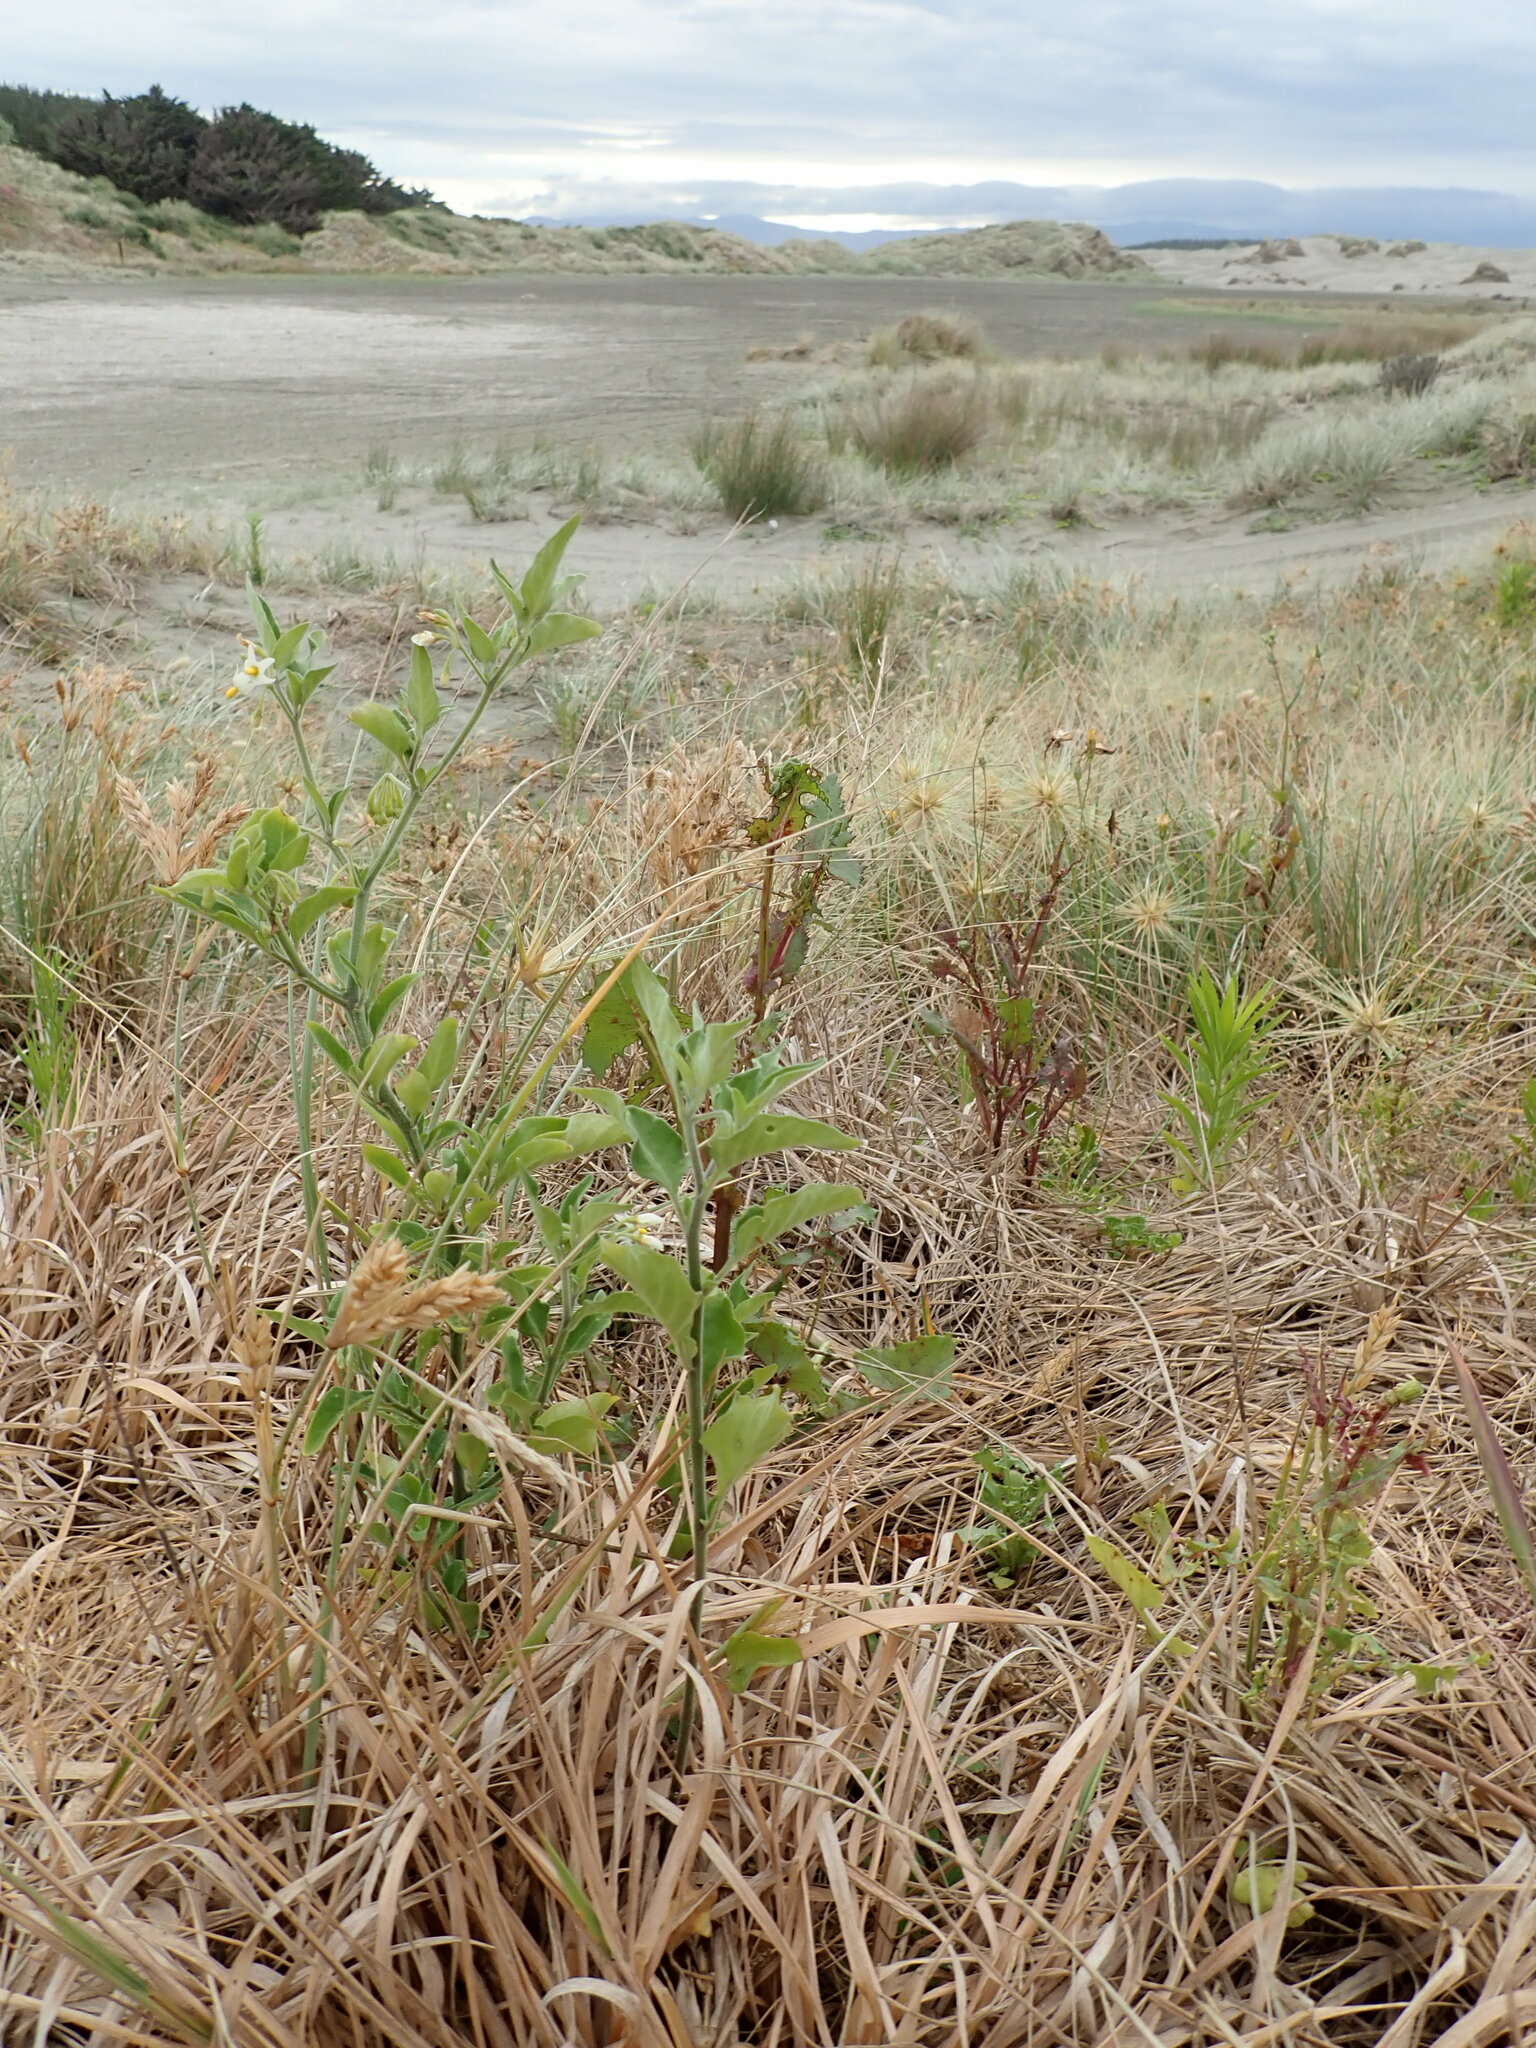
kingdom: Plantae
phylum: Tracheophyta
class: Magnoliopsida
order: Solanales
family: Solanaceae
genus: Solanum
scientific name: Solanum chenopodioides
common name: Tall nightshade
